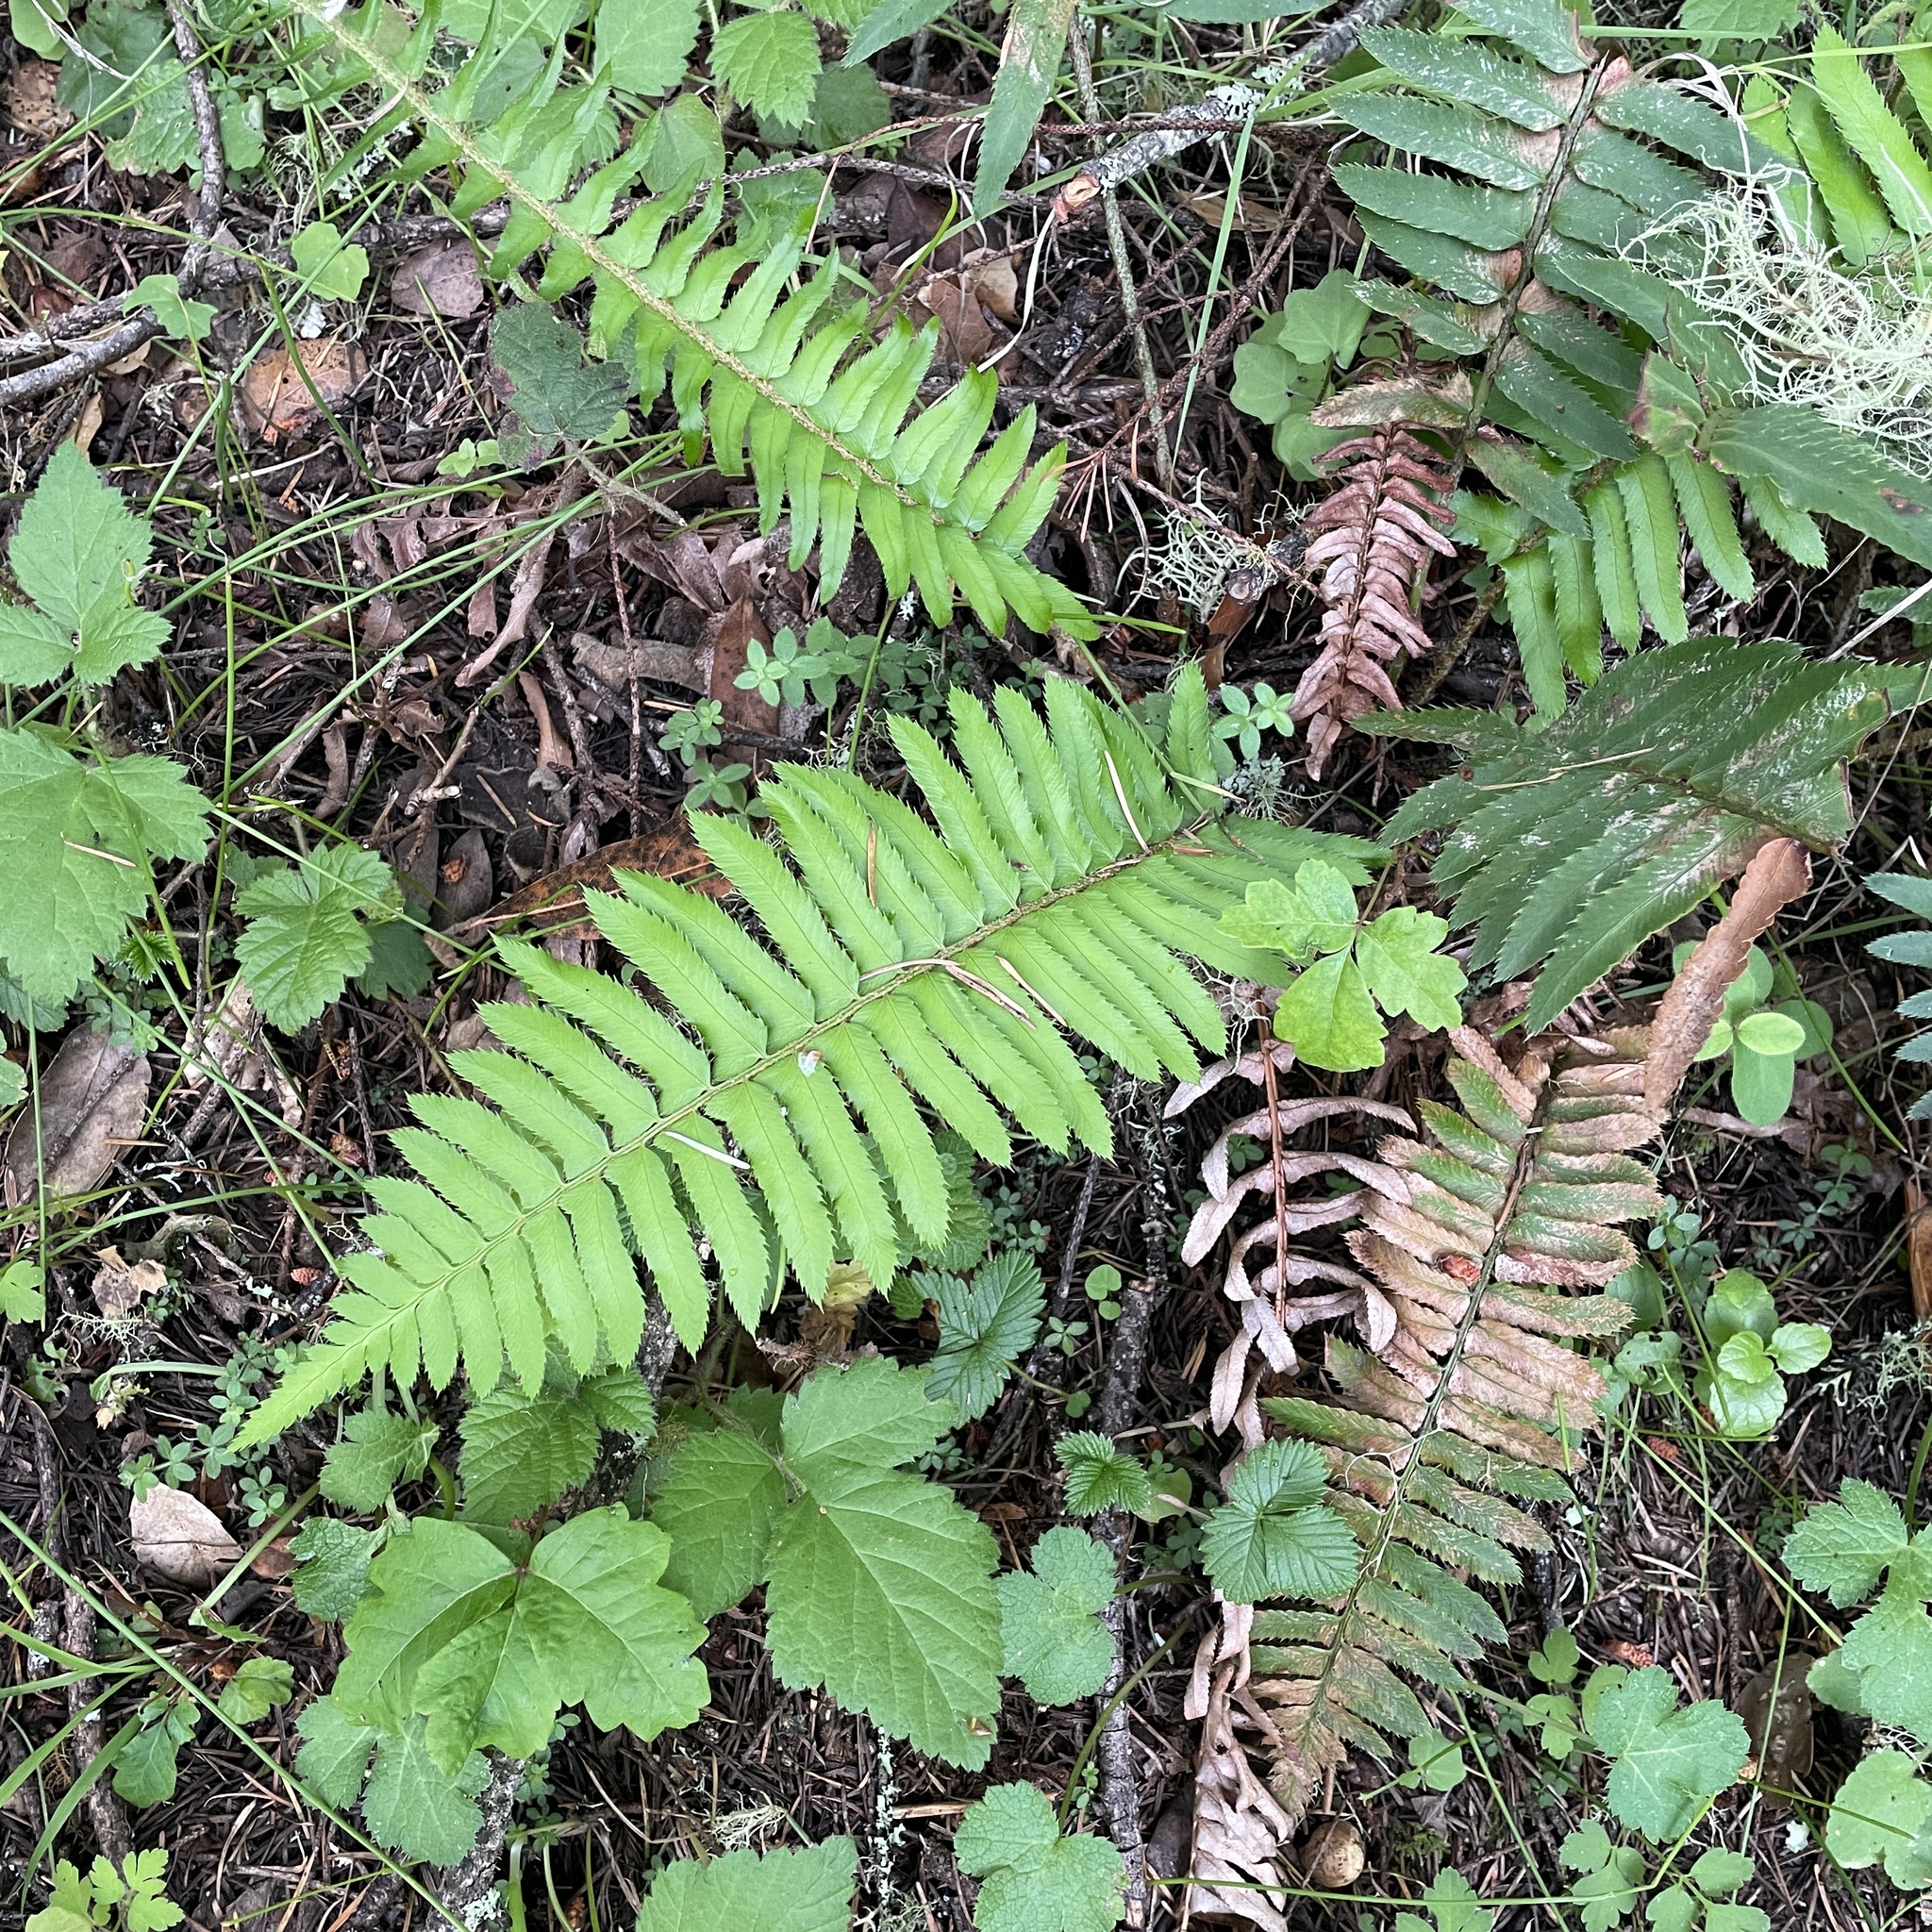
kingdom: Plantae
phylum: Tracheophyta
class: Polypodiopsida
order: Polypodiales
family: Dryopteridaceae
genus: Polystichum
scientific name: Polystichum munitum
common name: Western sword-fern
